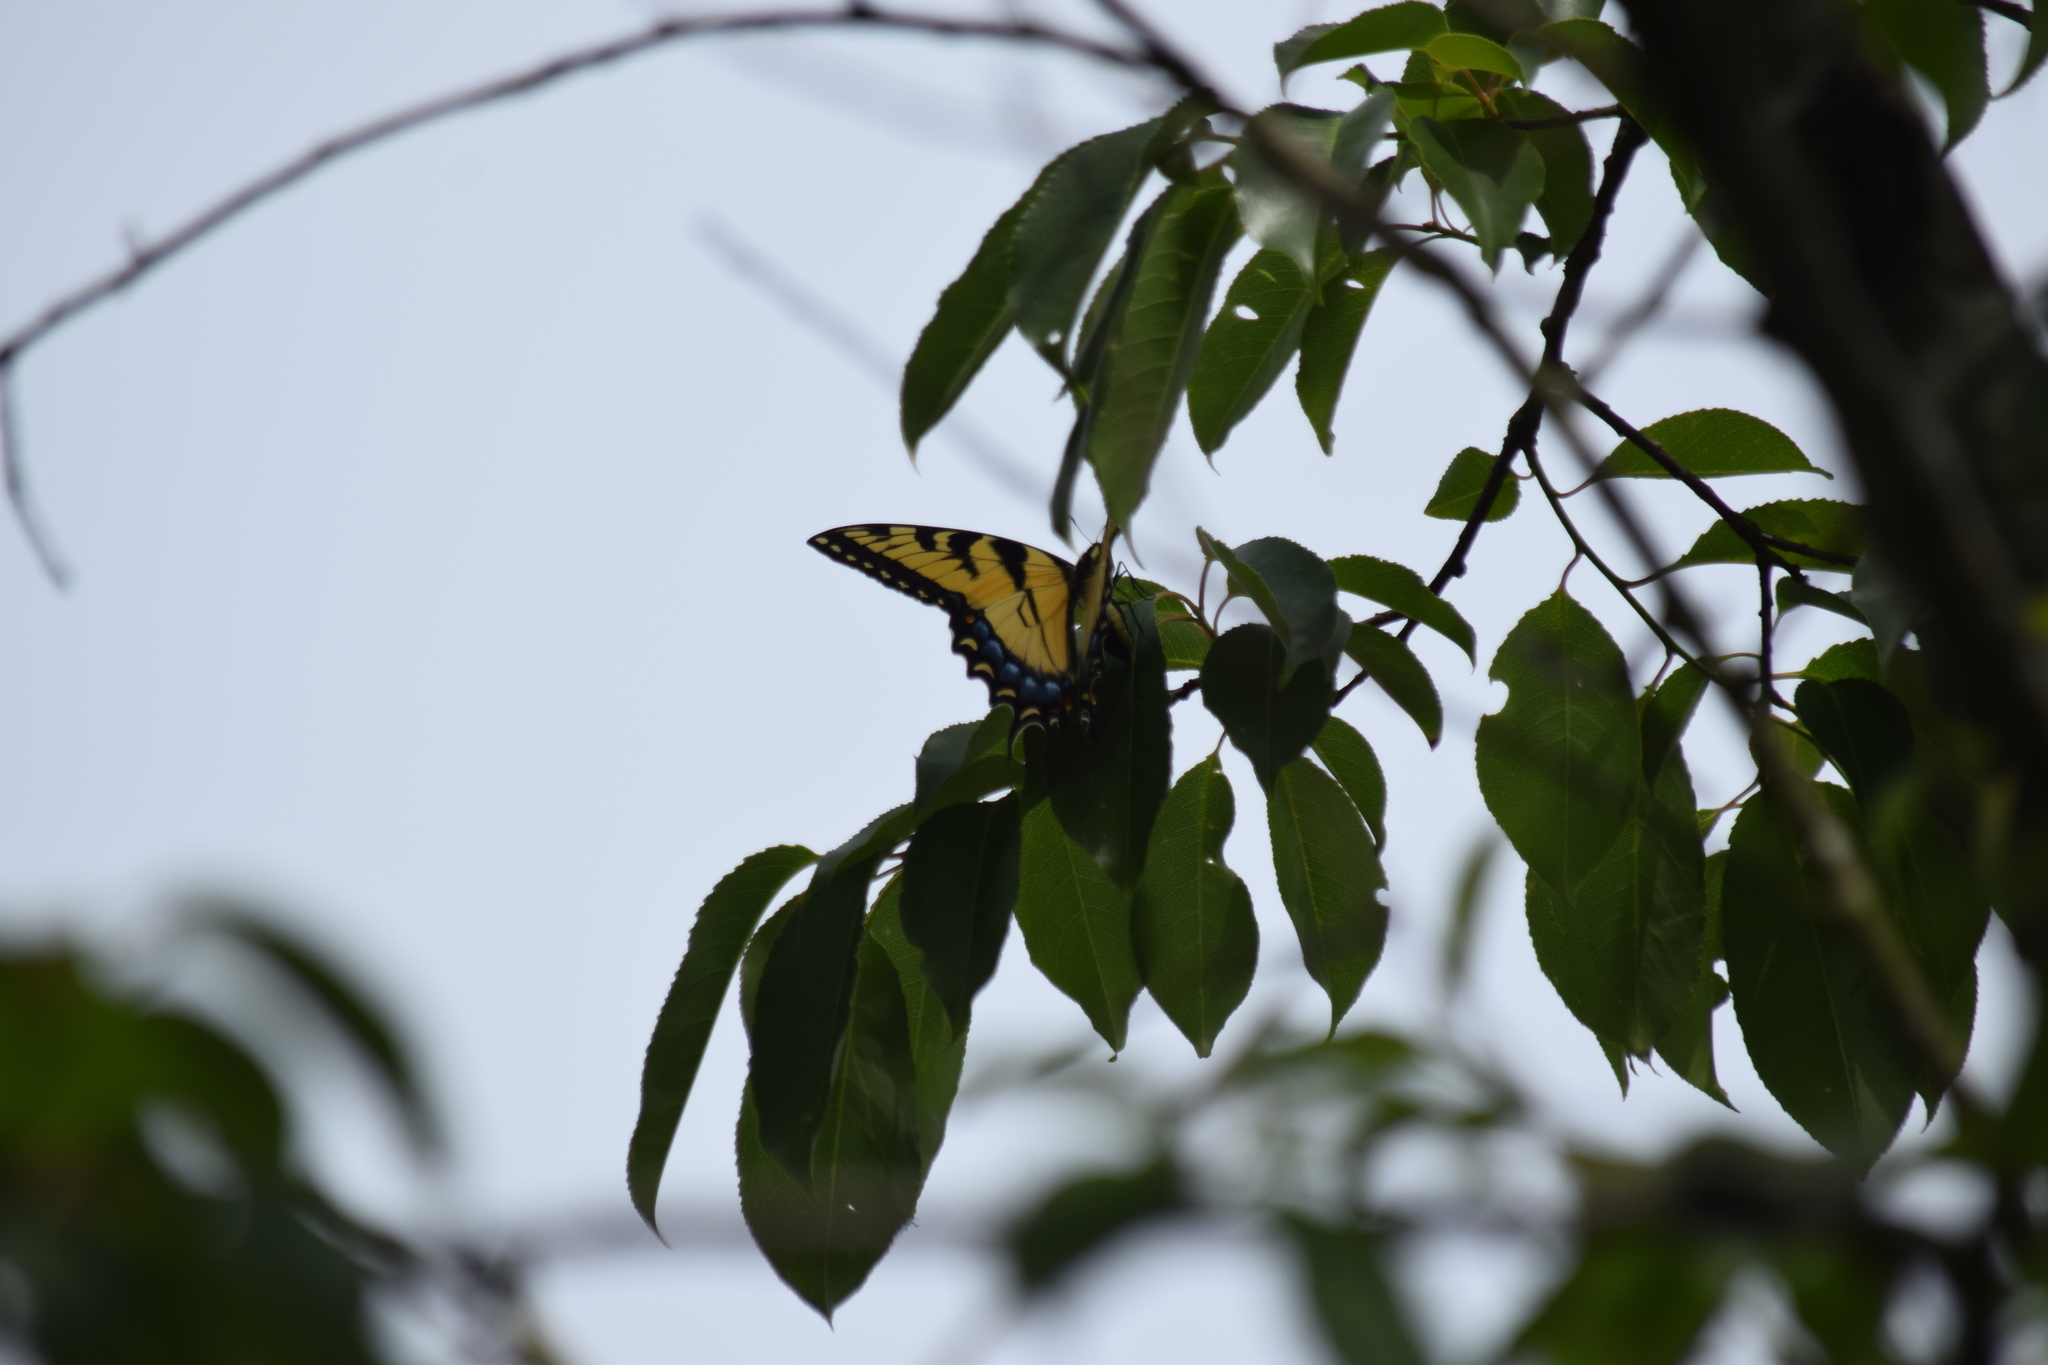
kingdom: Animalia
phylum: Arthropoda
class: Insecta
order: Lepidoptera
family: Papilionidae
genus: Papilio
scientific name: Papilio glaucus
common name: Tiger swallowtail
